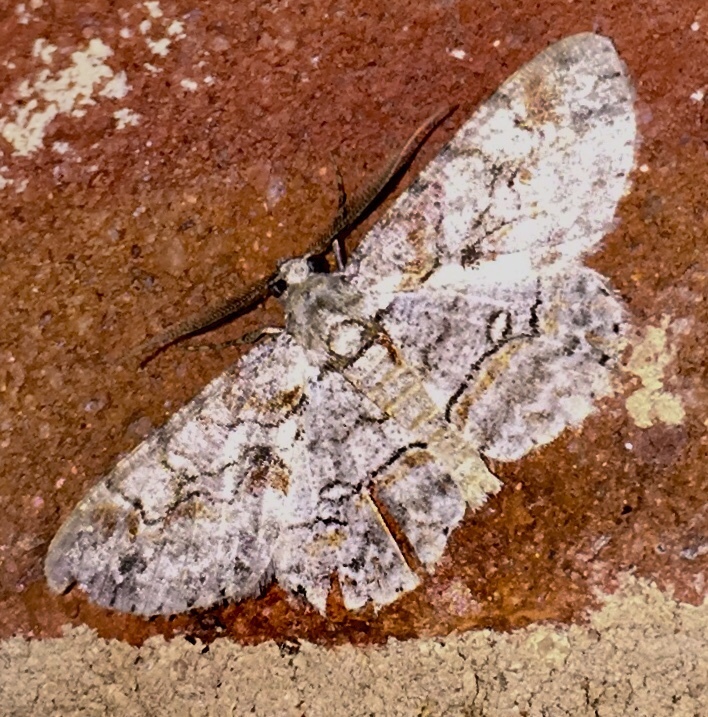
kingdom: Animalia
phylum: Arthropoda
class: Insecta
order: Lepidoptera
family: Geometridae
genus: Iridopsis
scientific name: Iridopsis defectaria
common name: Brown-shaded gray
